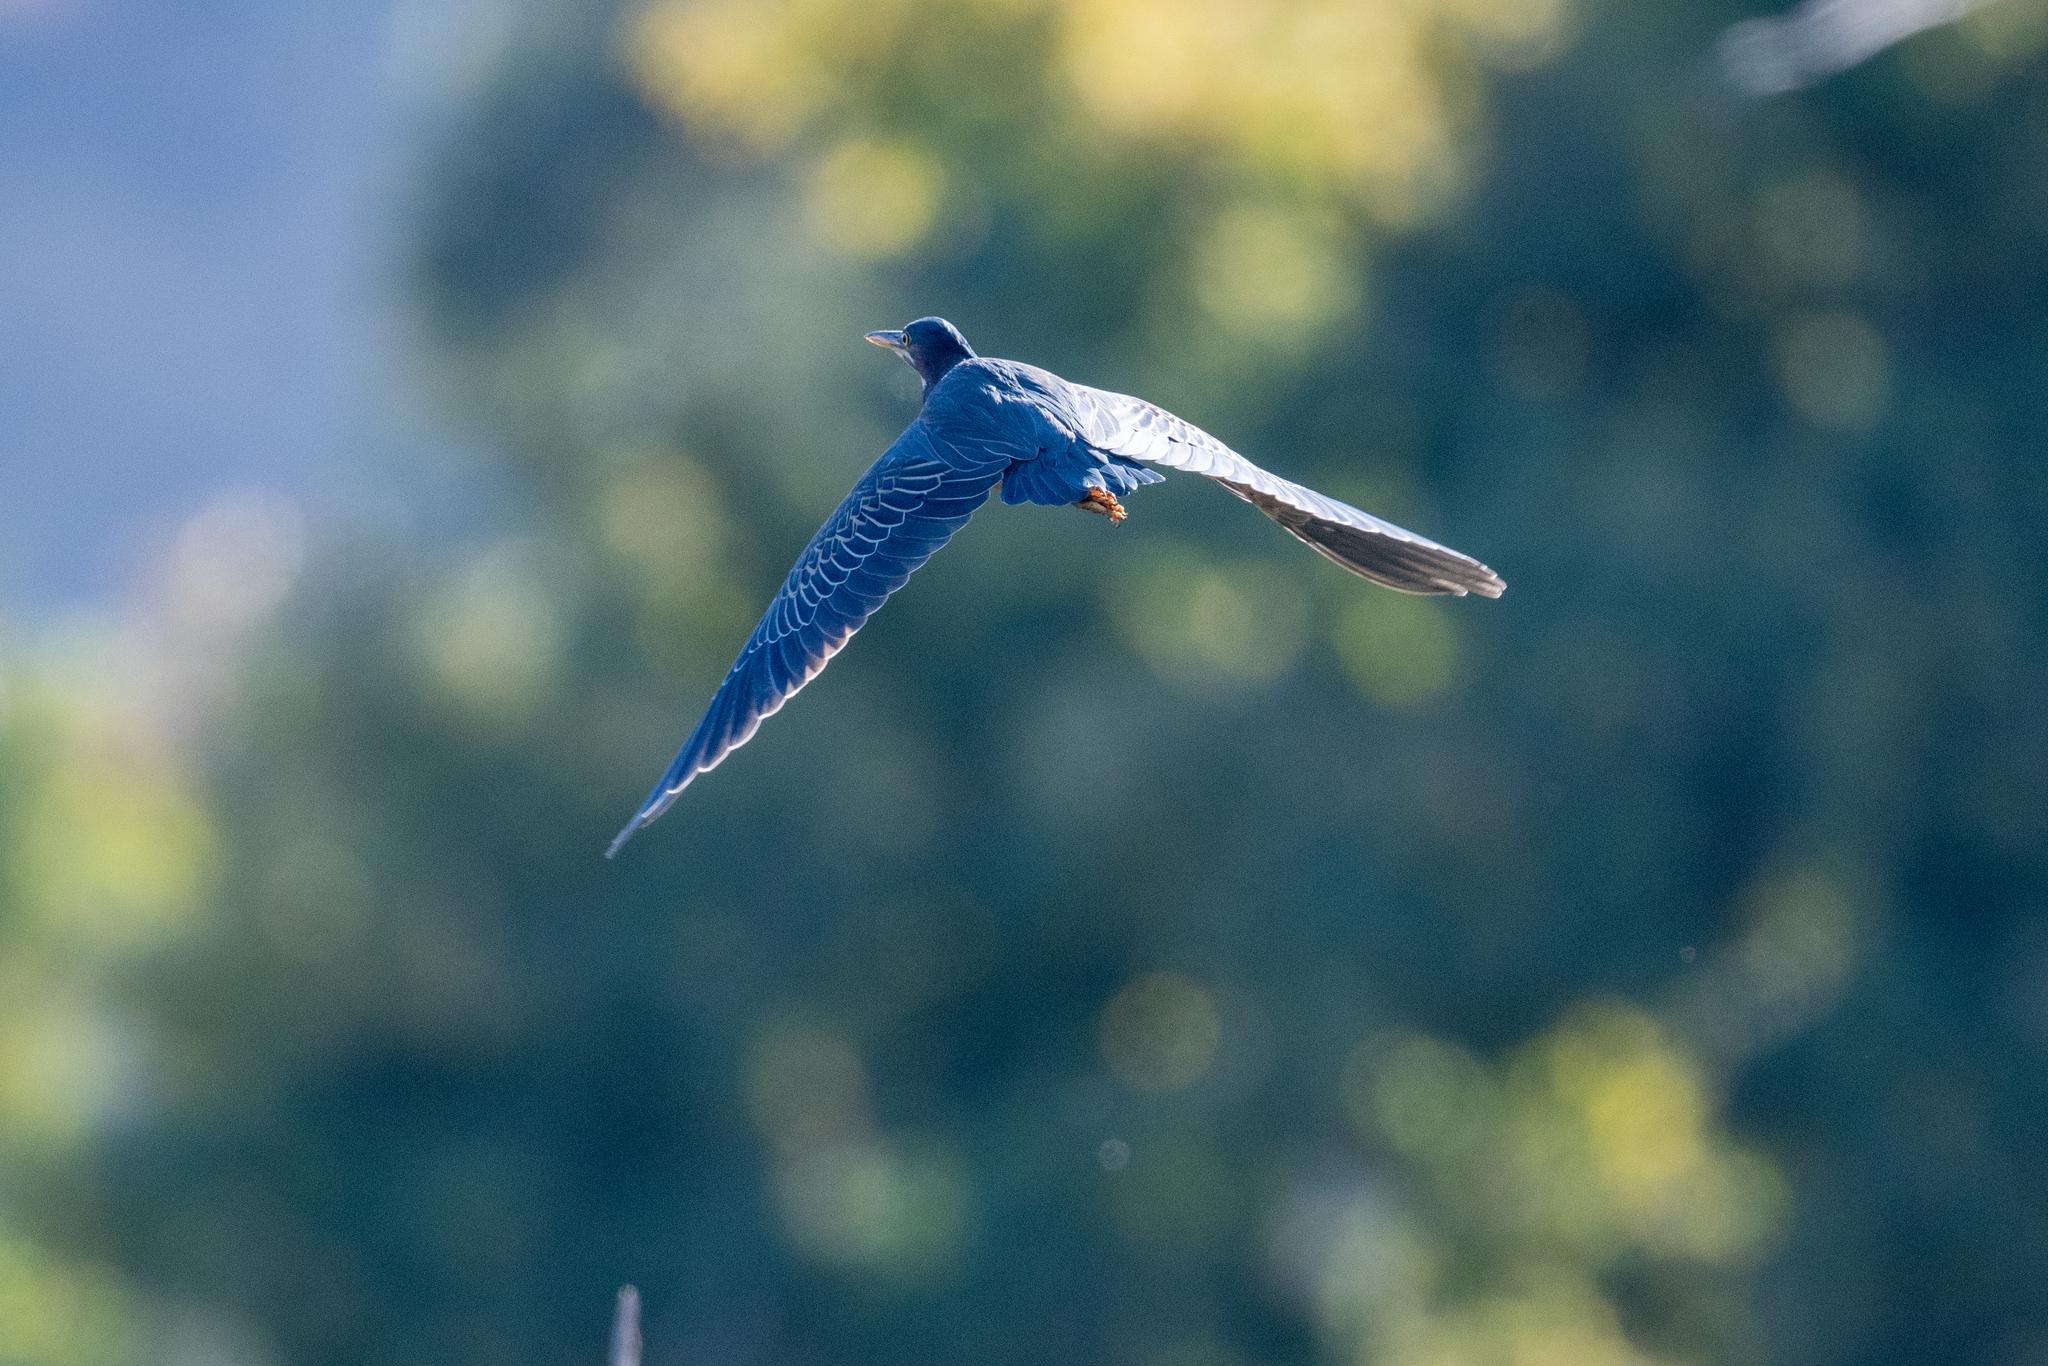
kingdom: Animalia
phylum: Chordata
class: Aves
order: Pelecaniformes
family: Ardeidae
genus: Butorides
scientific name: Butorides virescens
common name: Green heron
